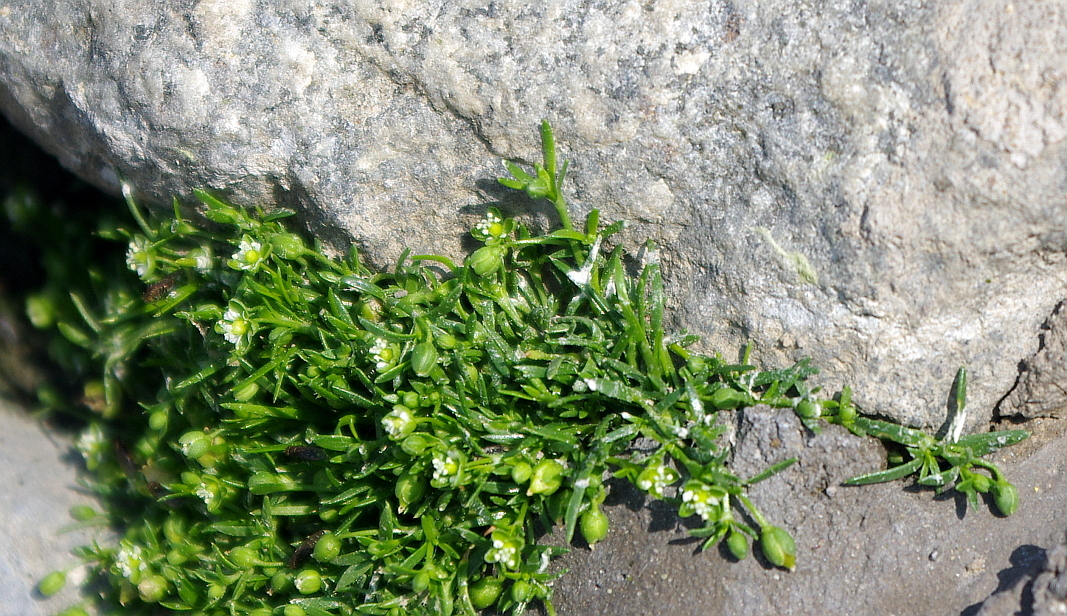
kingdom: Plantae
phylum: Tracheophyta
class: Magnoliopsida
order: Caryophyllales
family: Caryophyllaceae
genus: Sagina
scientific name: Sagina procumbens
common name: Procumbent pearlwort
